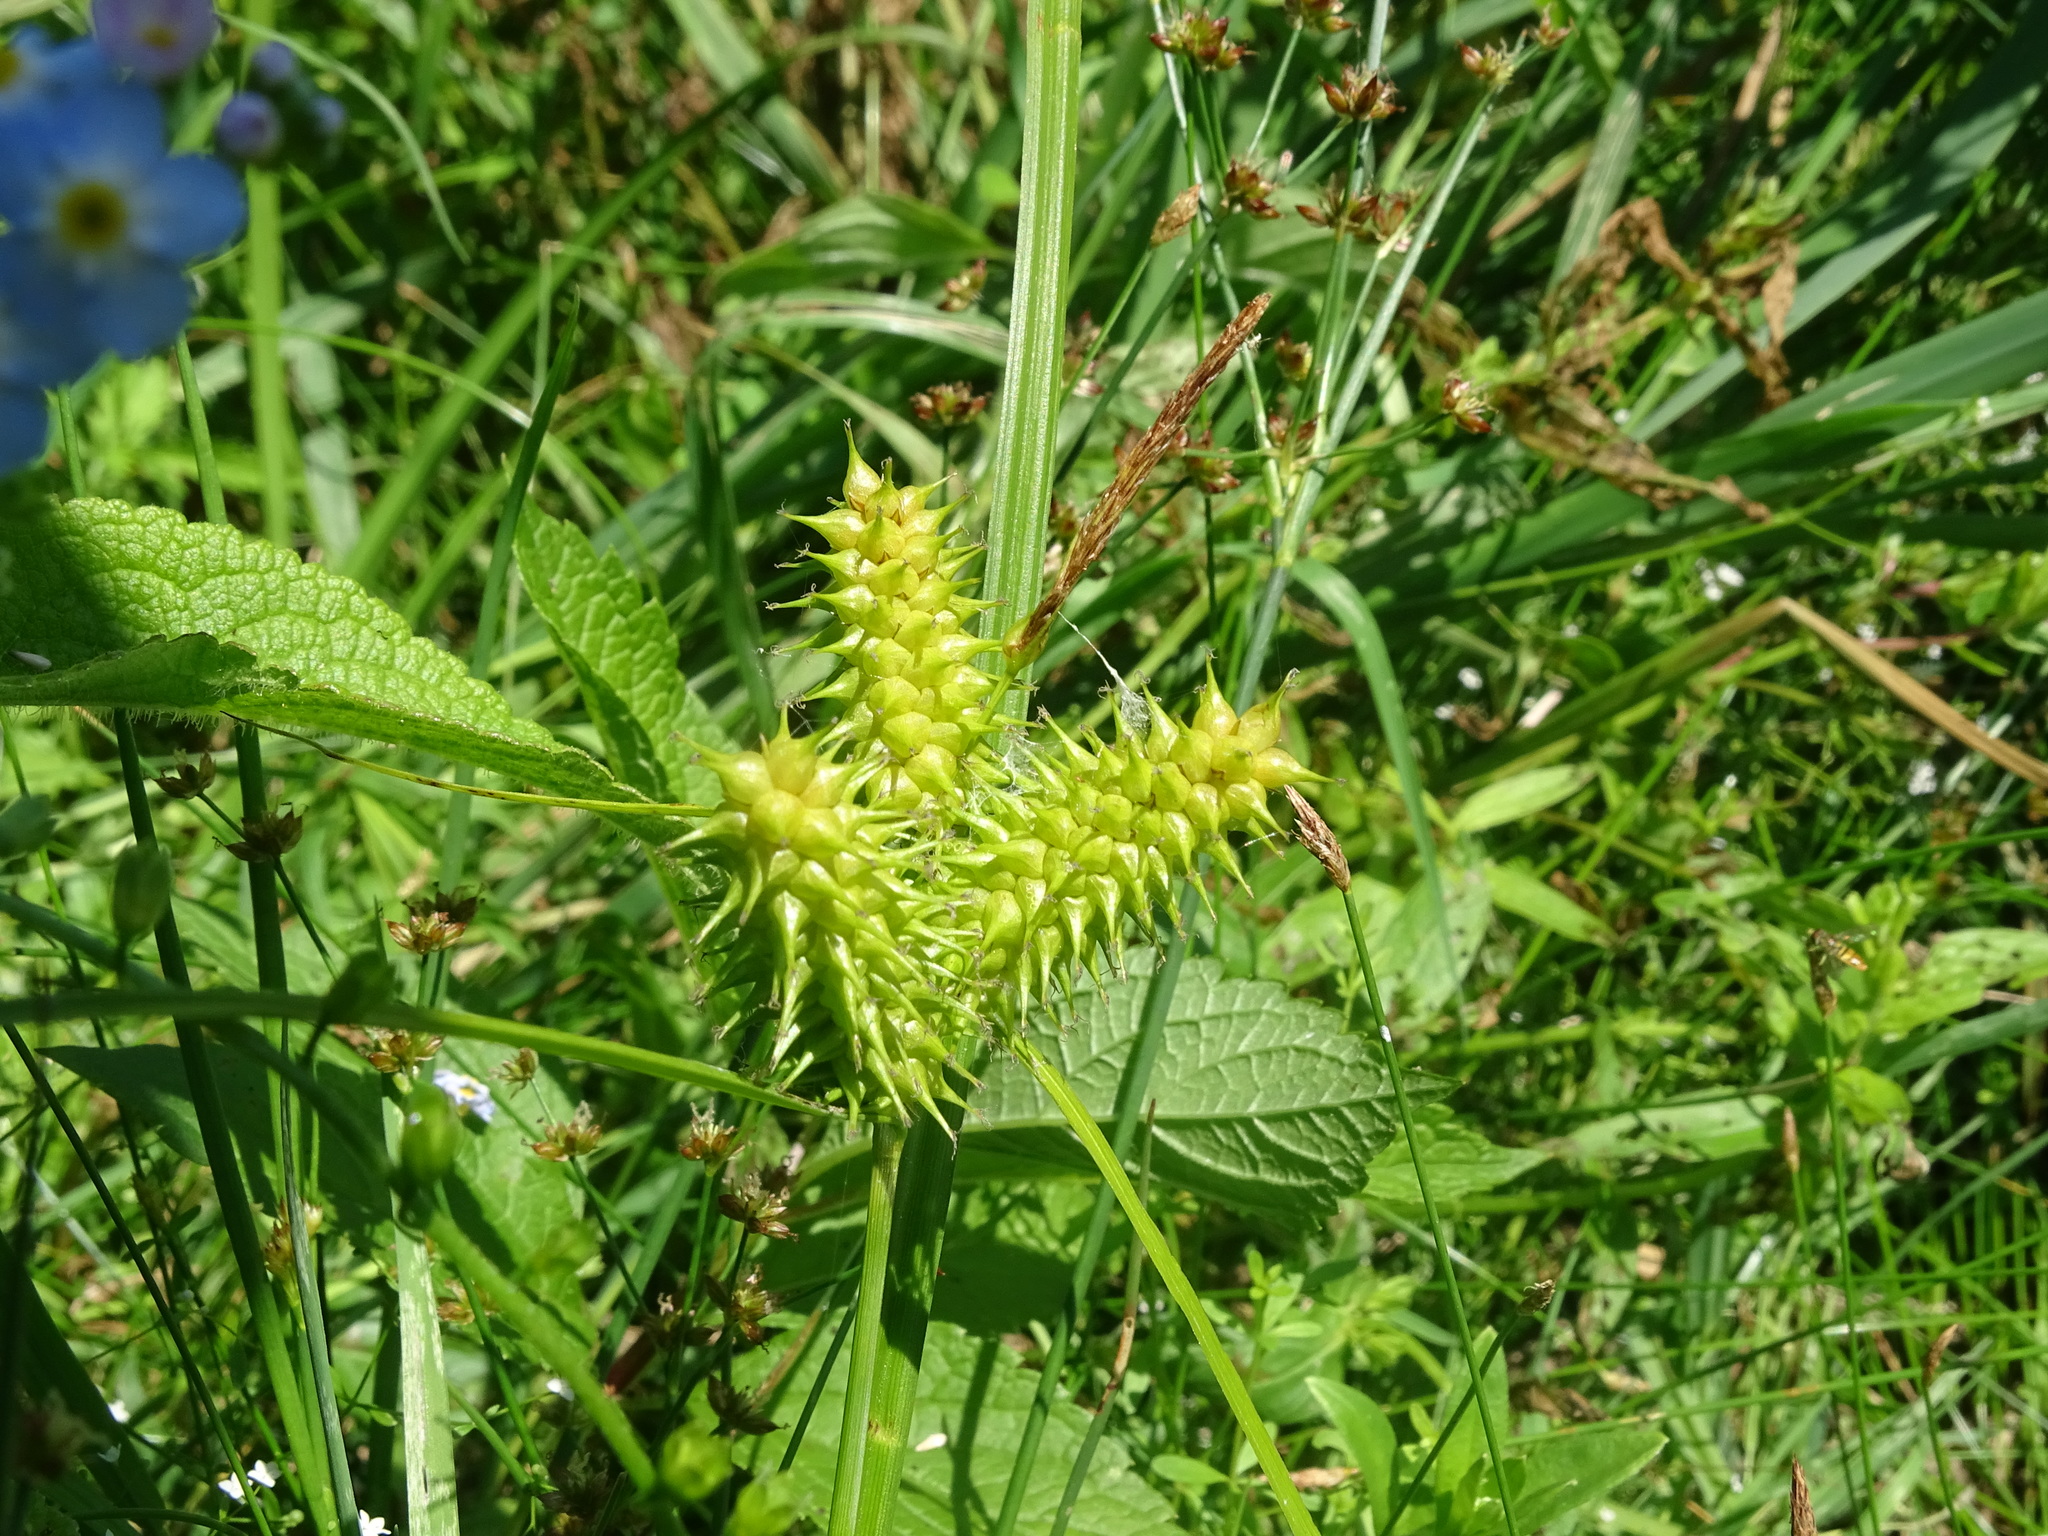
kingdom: Plantae
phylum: Tracheophyta
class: Liliopsida
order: Poales
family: Cyperaceae
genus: Carex
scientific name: Carex retrorsa
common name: Knot-sheath sedge
